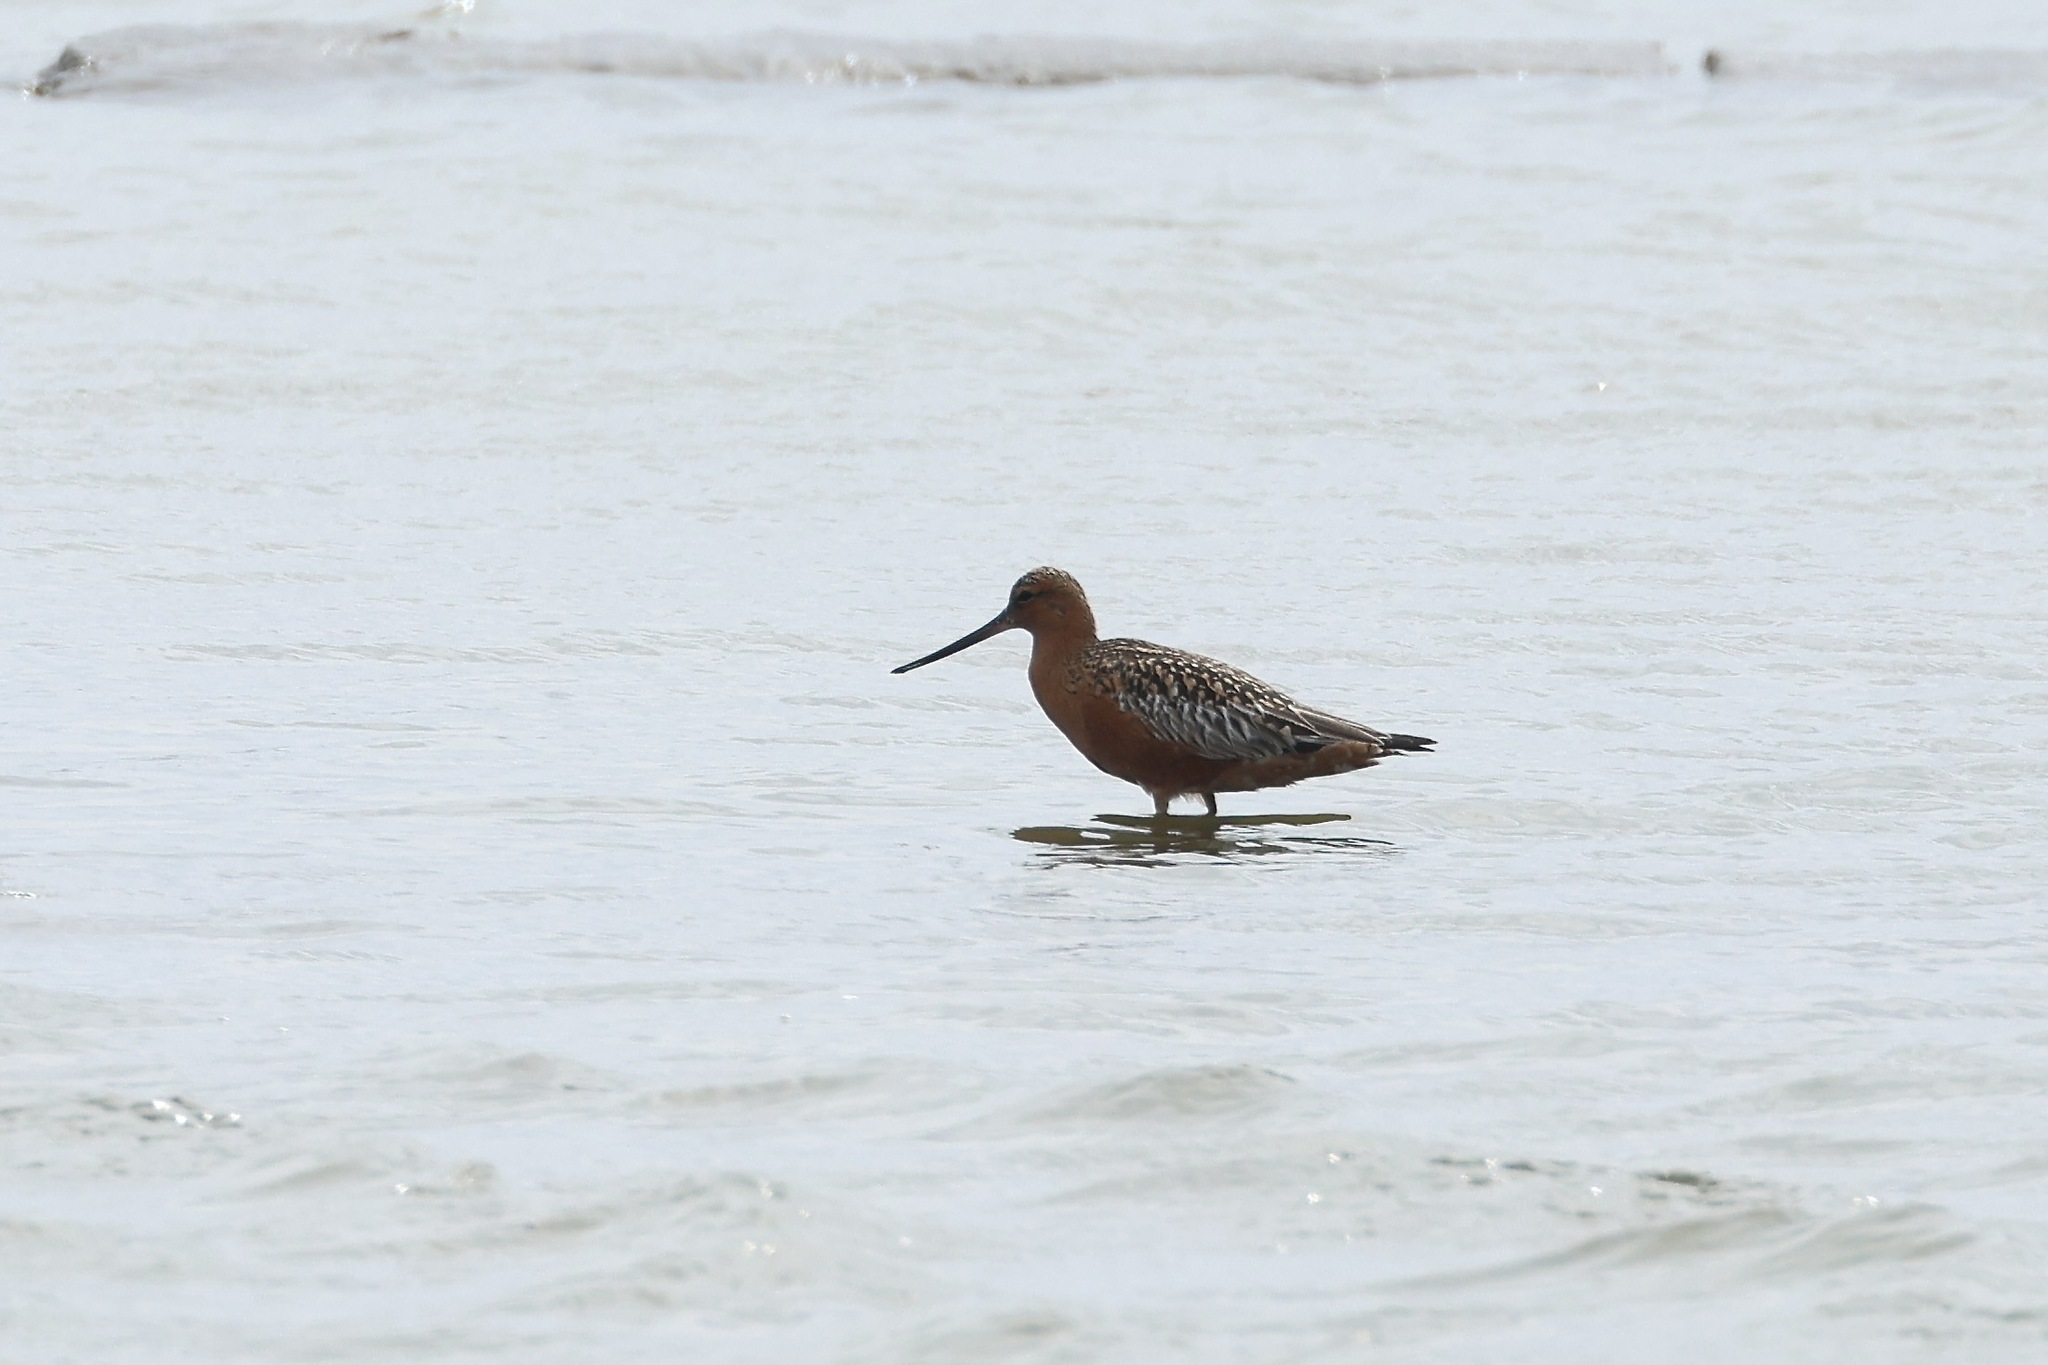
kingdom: Animalia
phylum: Chordata
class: Aves
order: Charadriiformes
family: Scolopacidae
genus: Limosa
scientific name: Limosa lapponica
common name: Bar-tailed godwit
